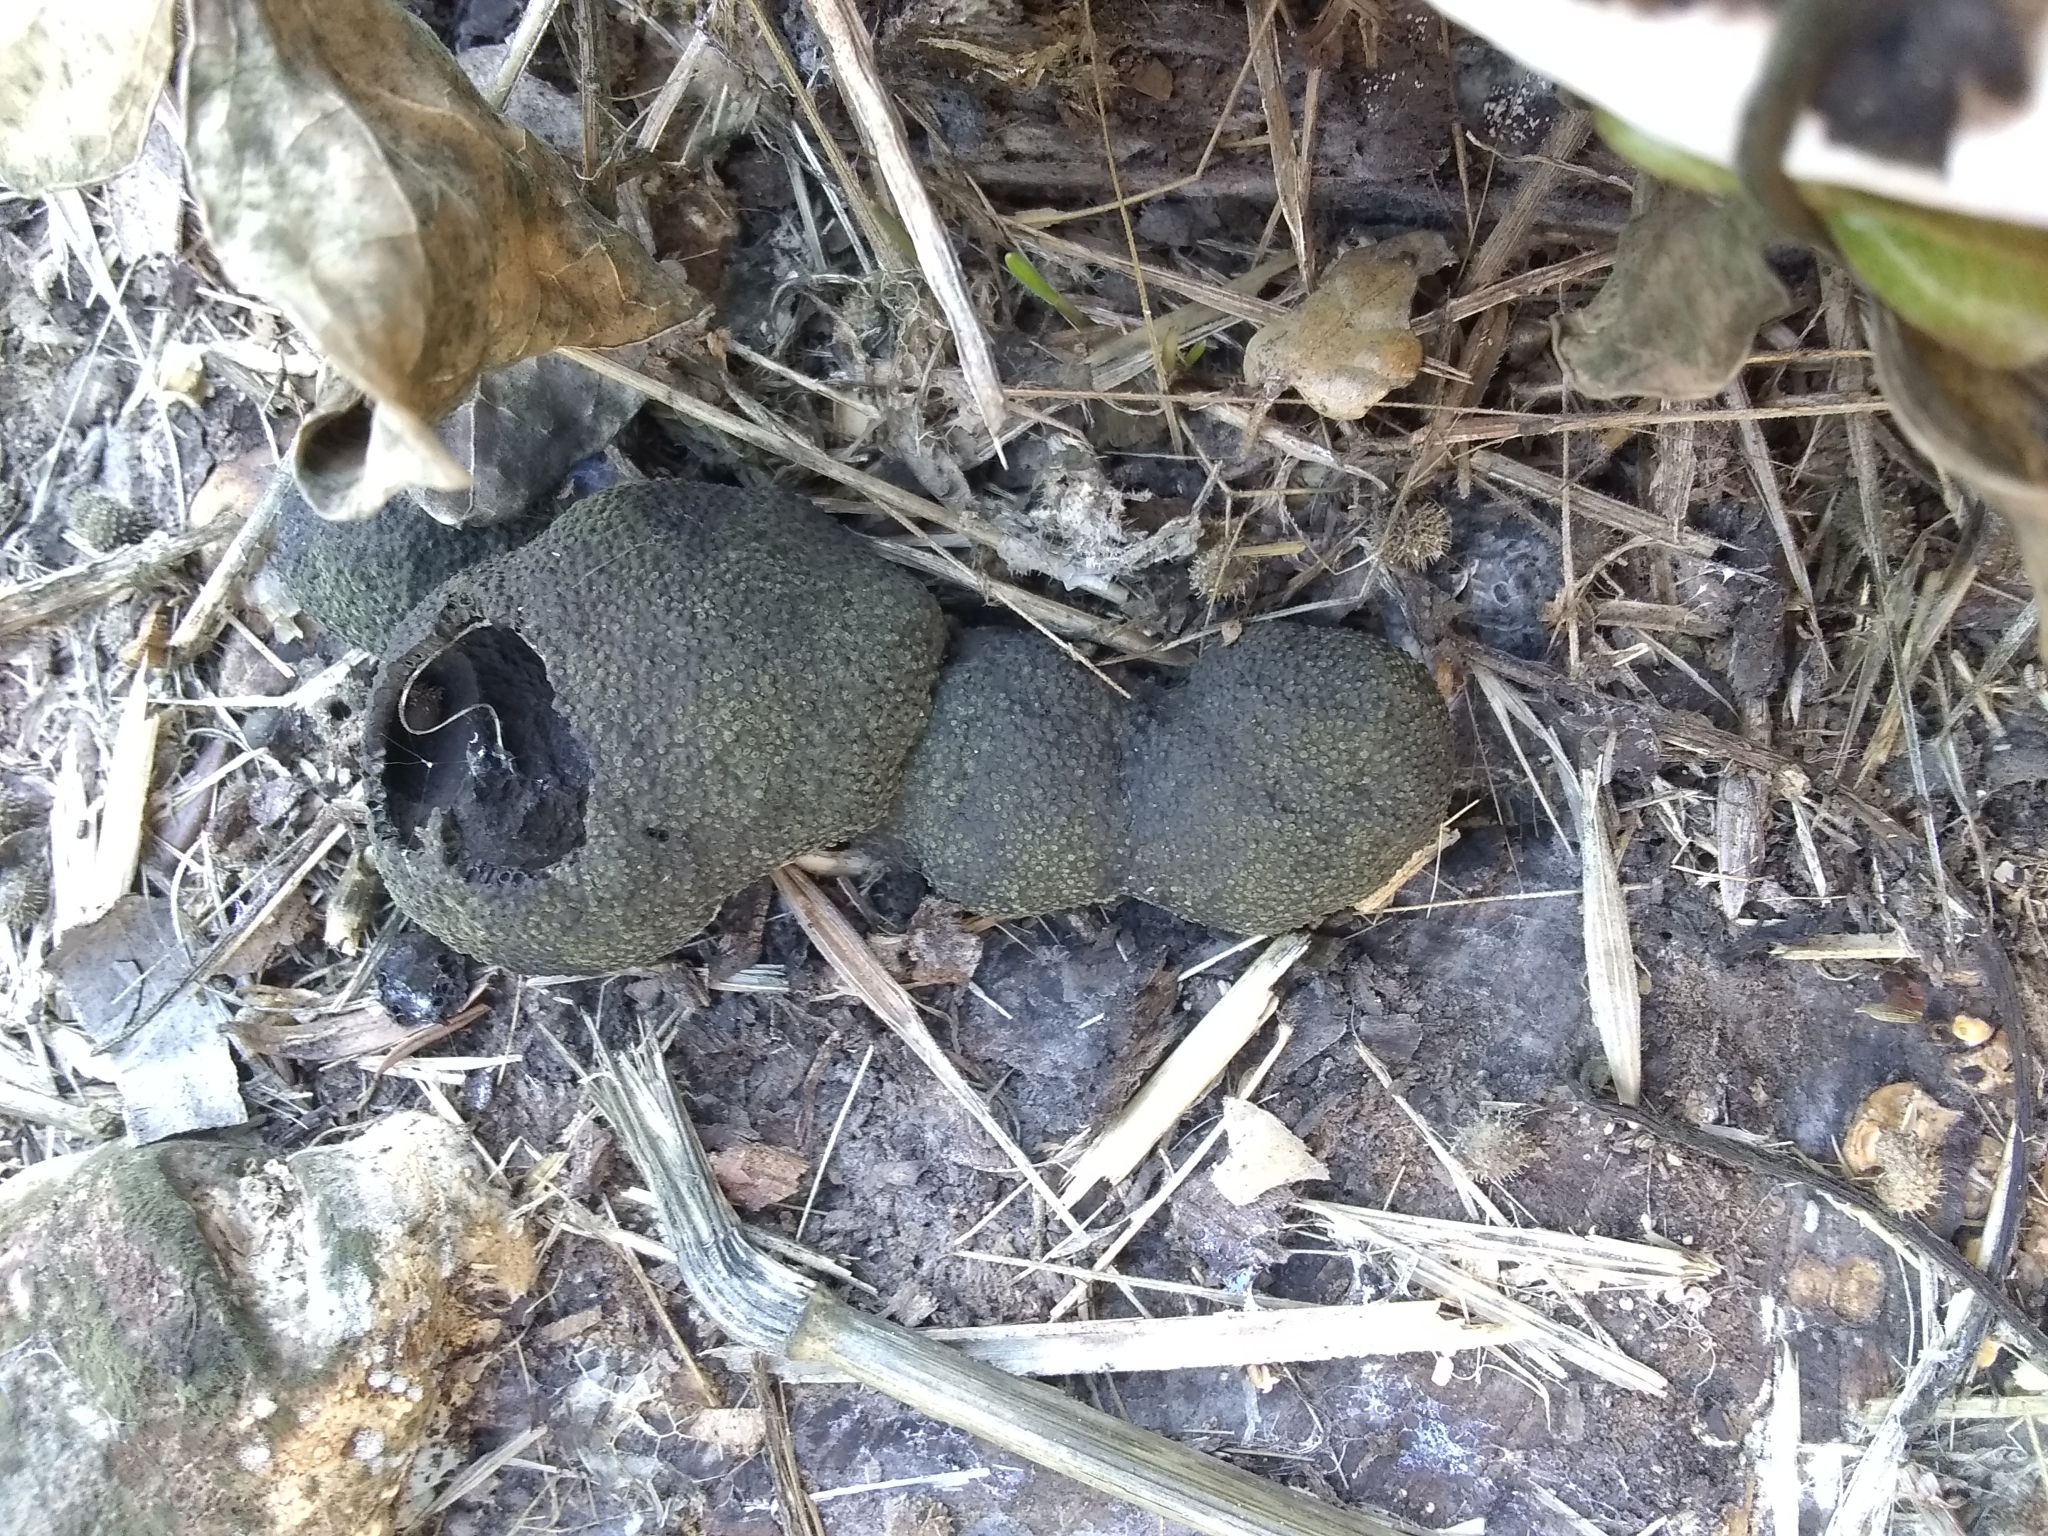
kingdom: Fungi
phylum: Ascomycota
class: Sordariomycetes
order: Xylariales
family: Hypoxylaceae
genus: Annulohypoxylon
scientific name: Annulohypoxylon thouarsianum
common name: Cramp balls
